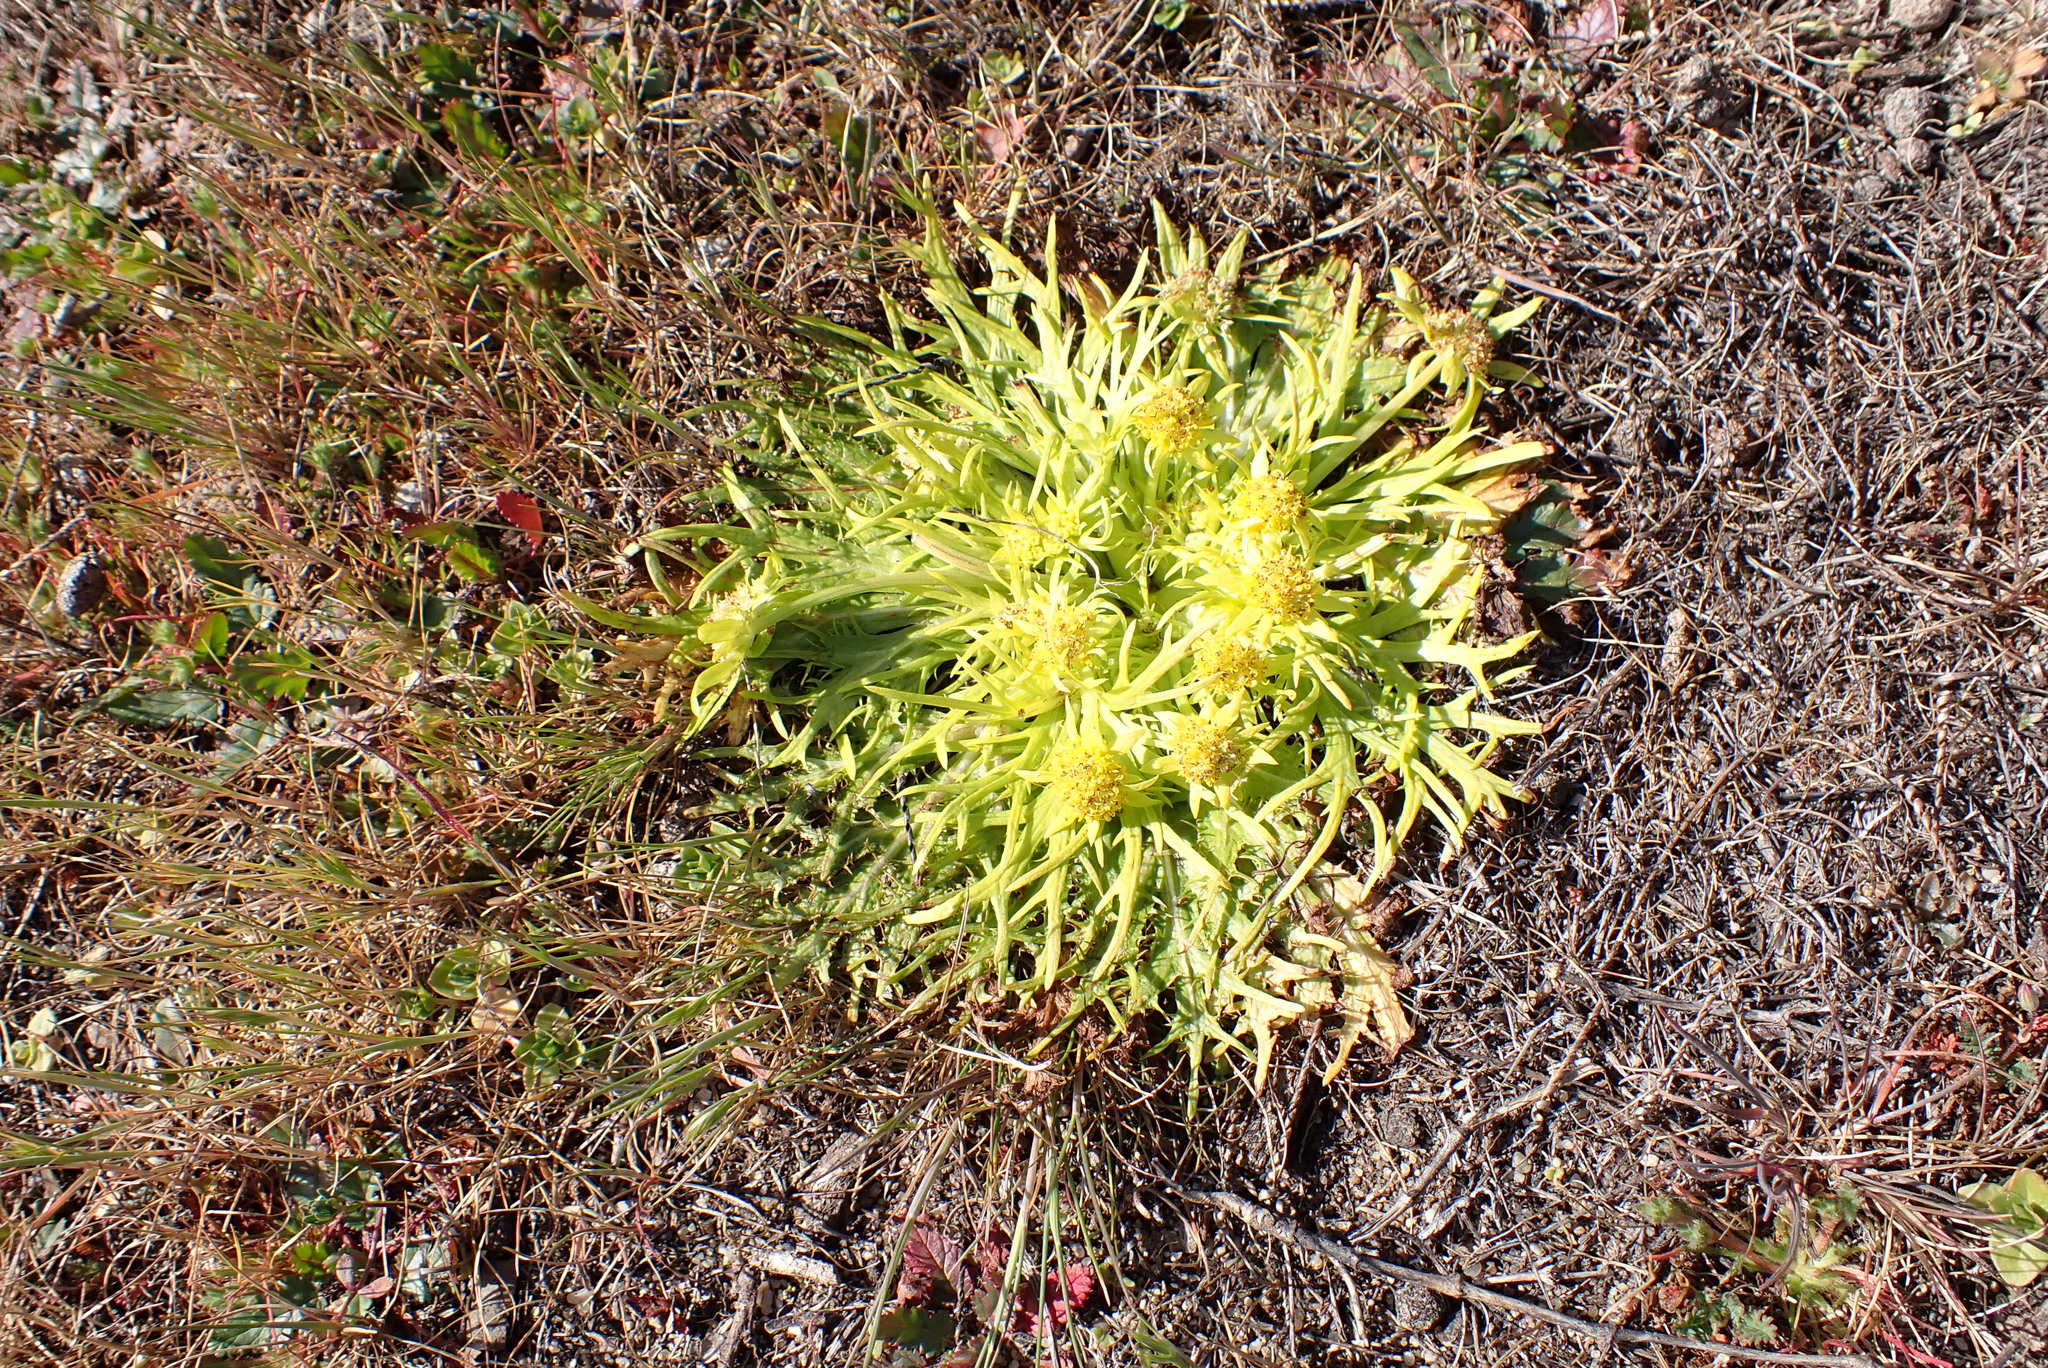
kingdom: Plantae
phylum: Tracheophyta
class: Magnoliopsida
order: Apiales
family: Apiaceae
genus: Sanicula
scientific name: Sanicula arctopoides
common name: Footsteps-of-spring
